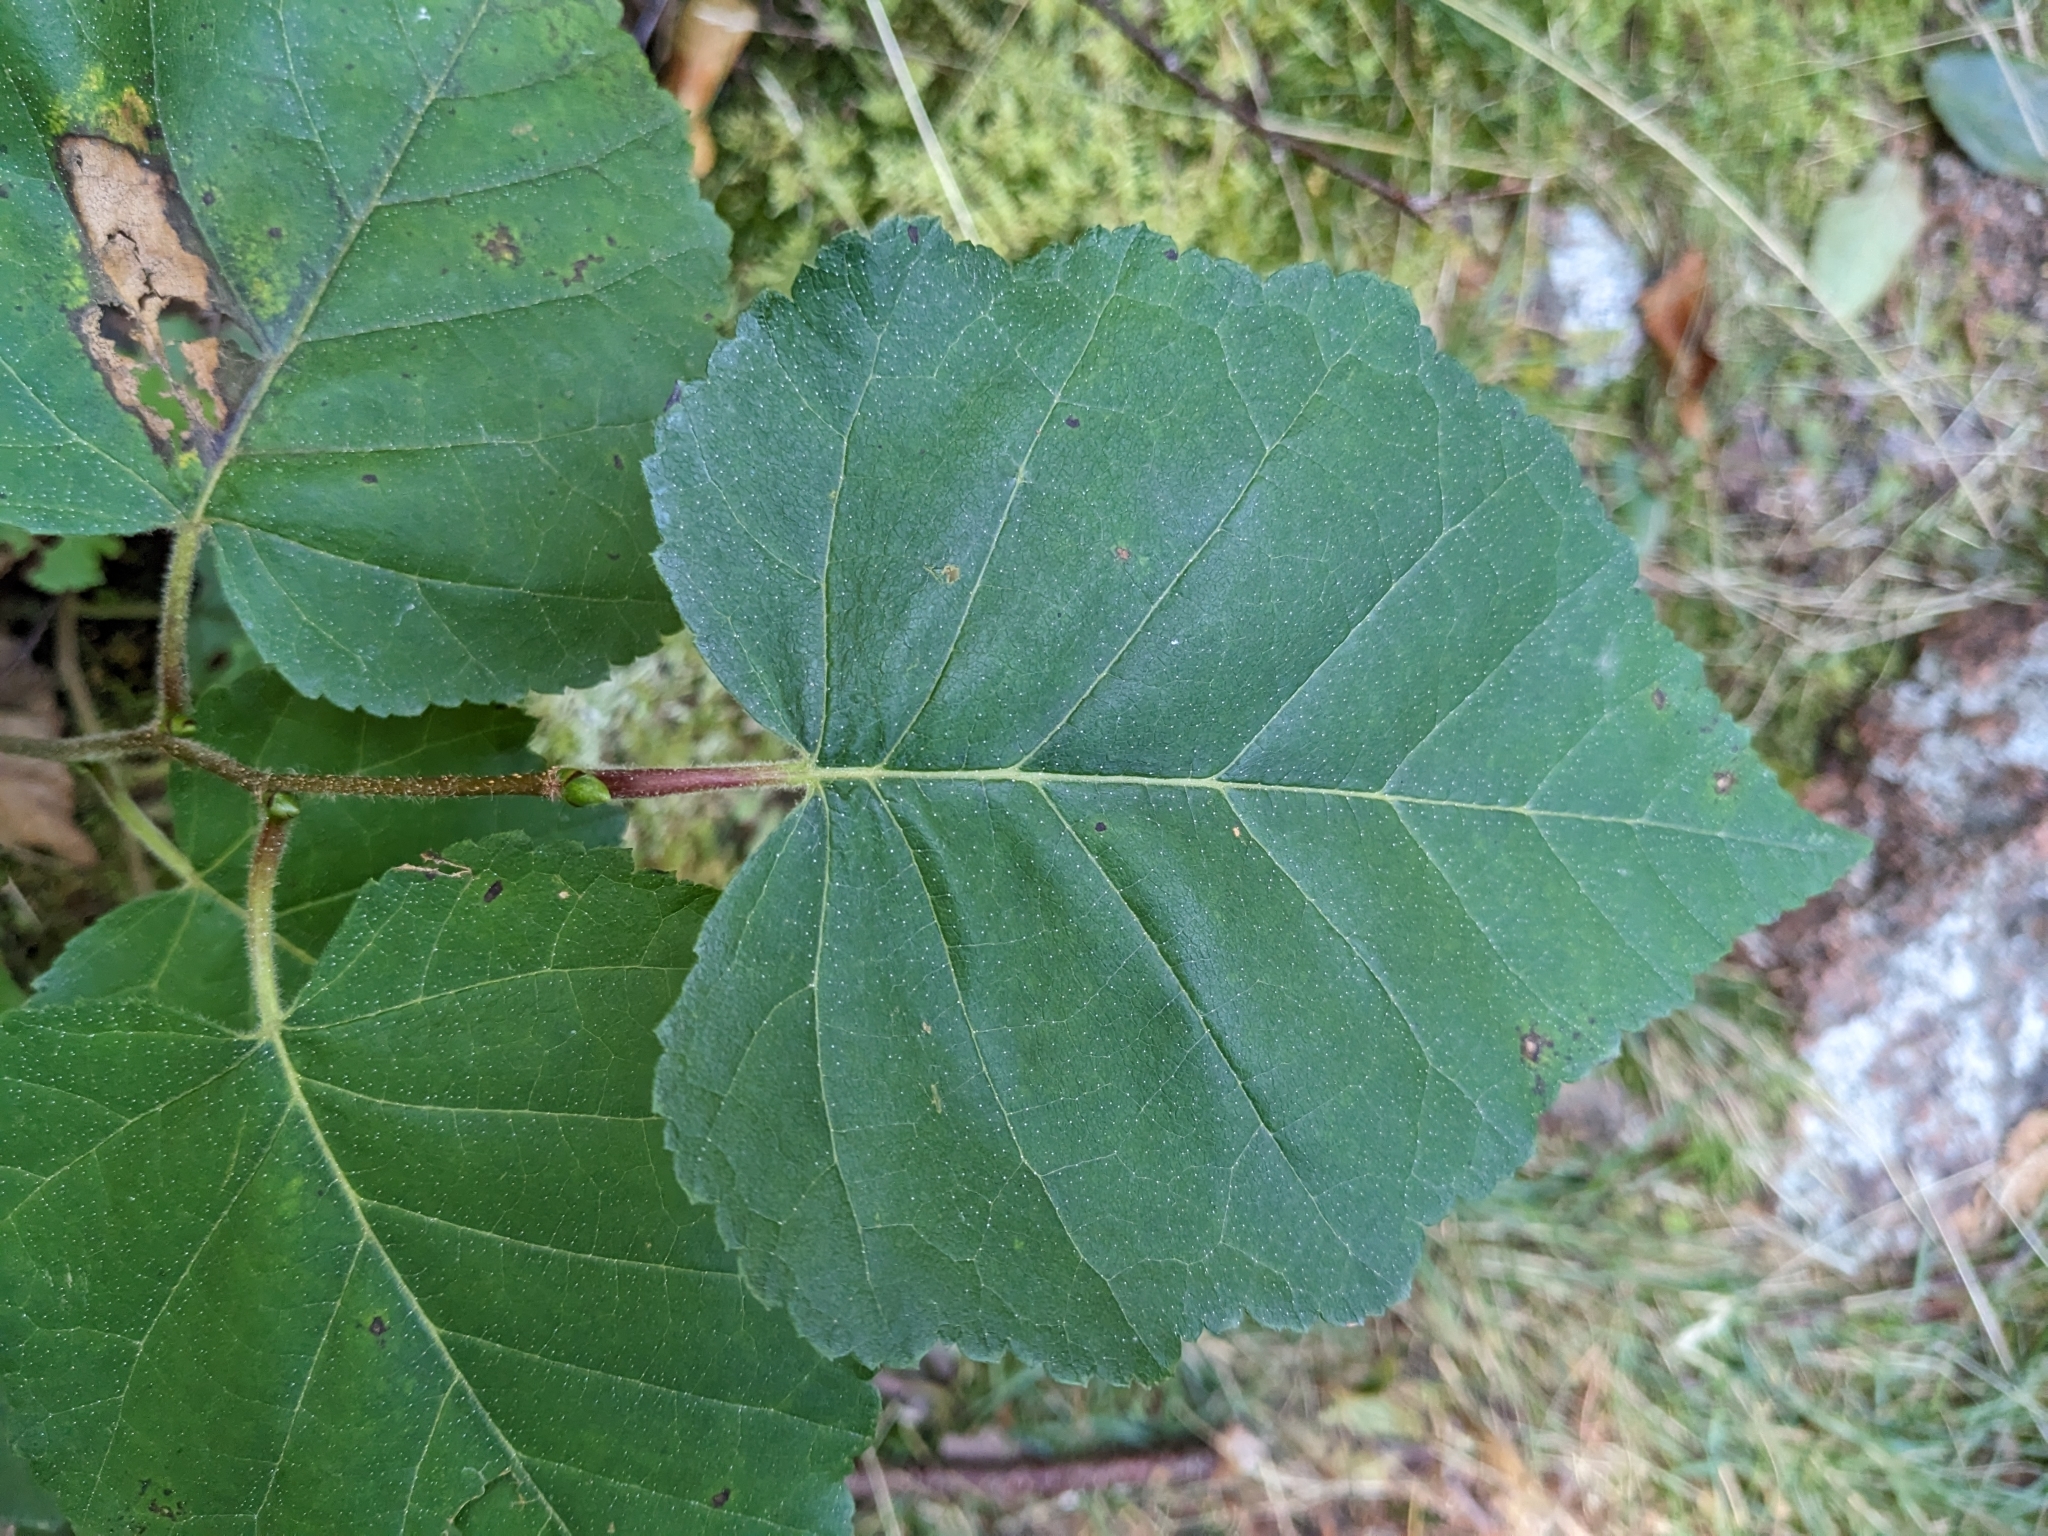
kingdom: Plantae
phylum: Tracheophyta
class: Magnoliopsida
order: Fagales
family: Betulaceae
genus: Betula
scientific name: Betula cordifolia
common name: Mountain white birch
